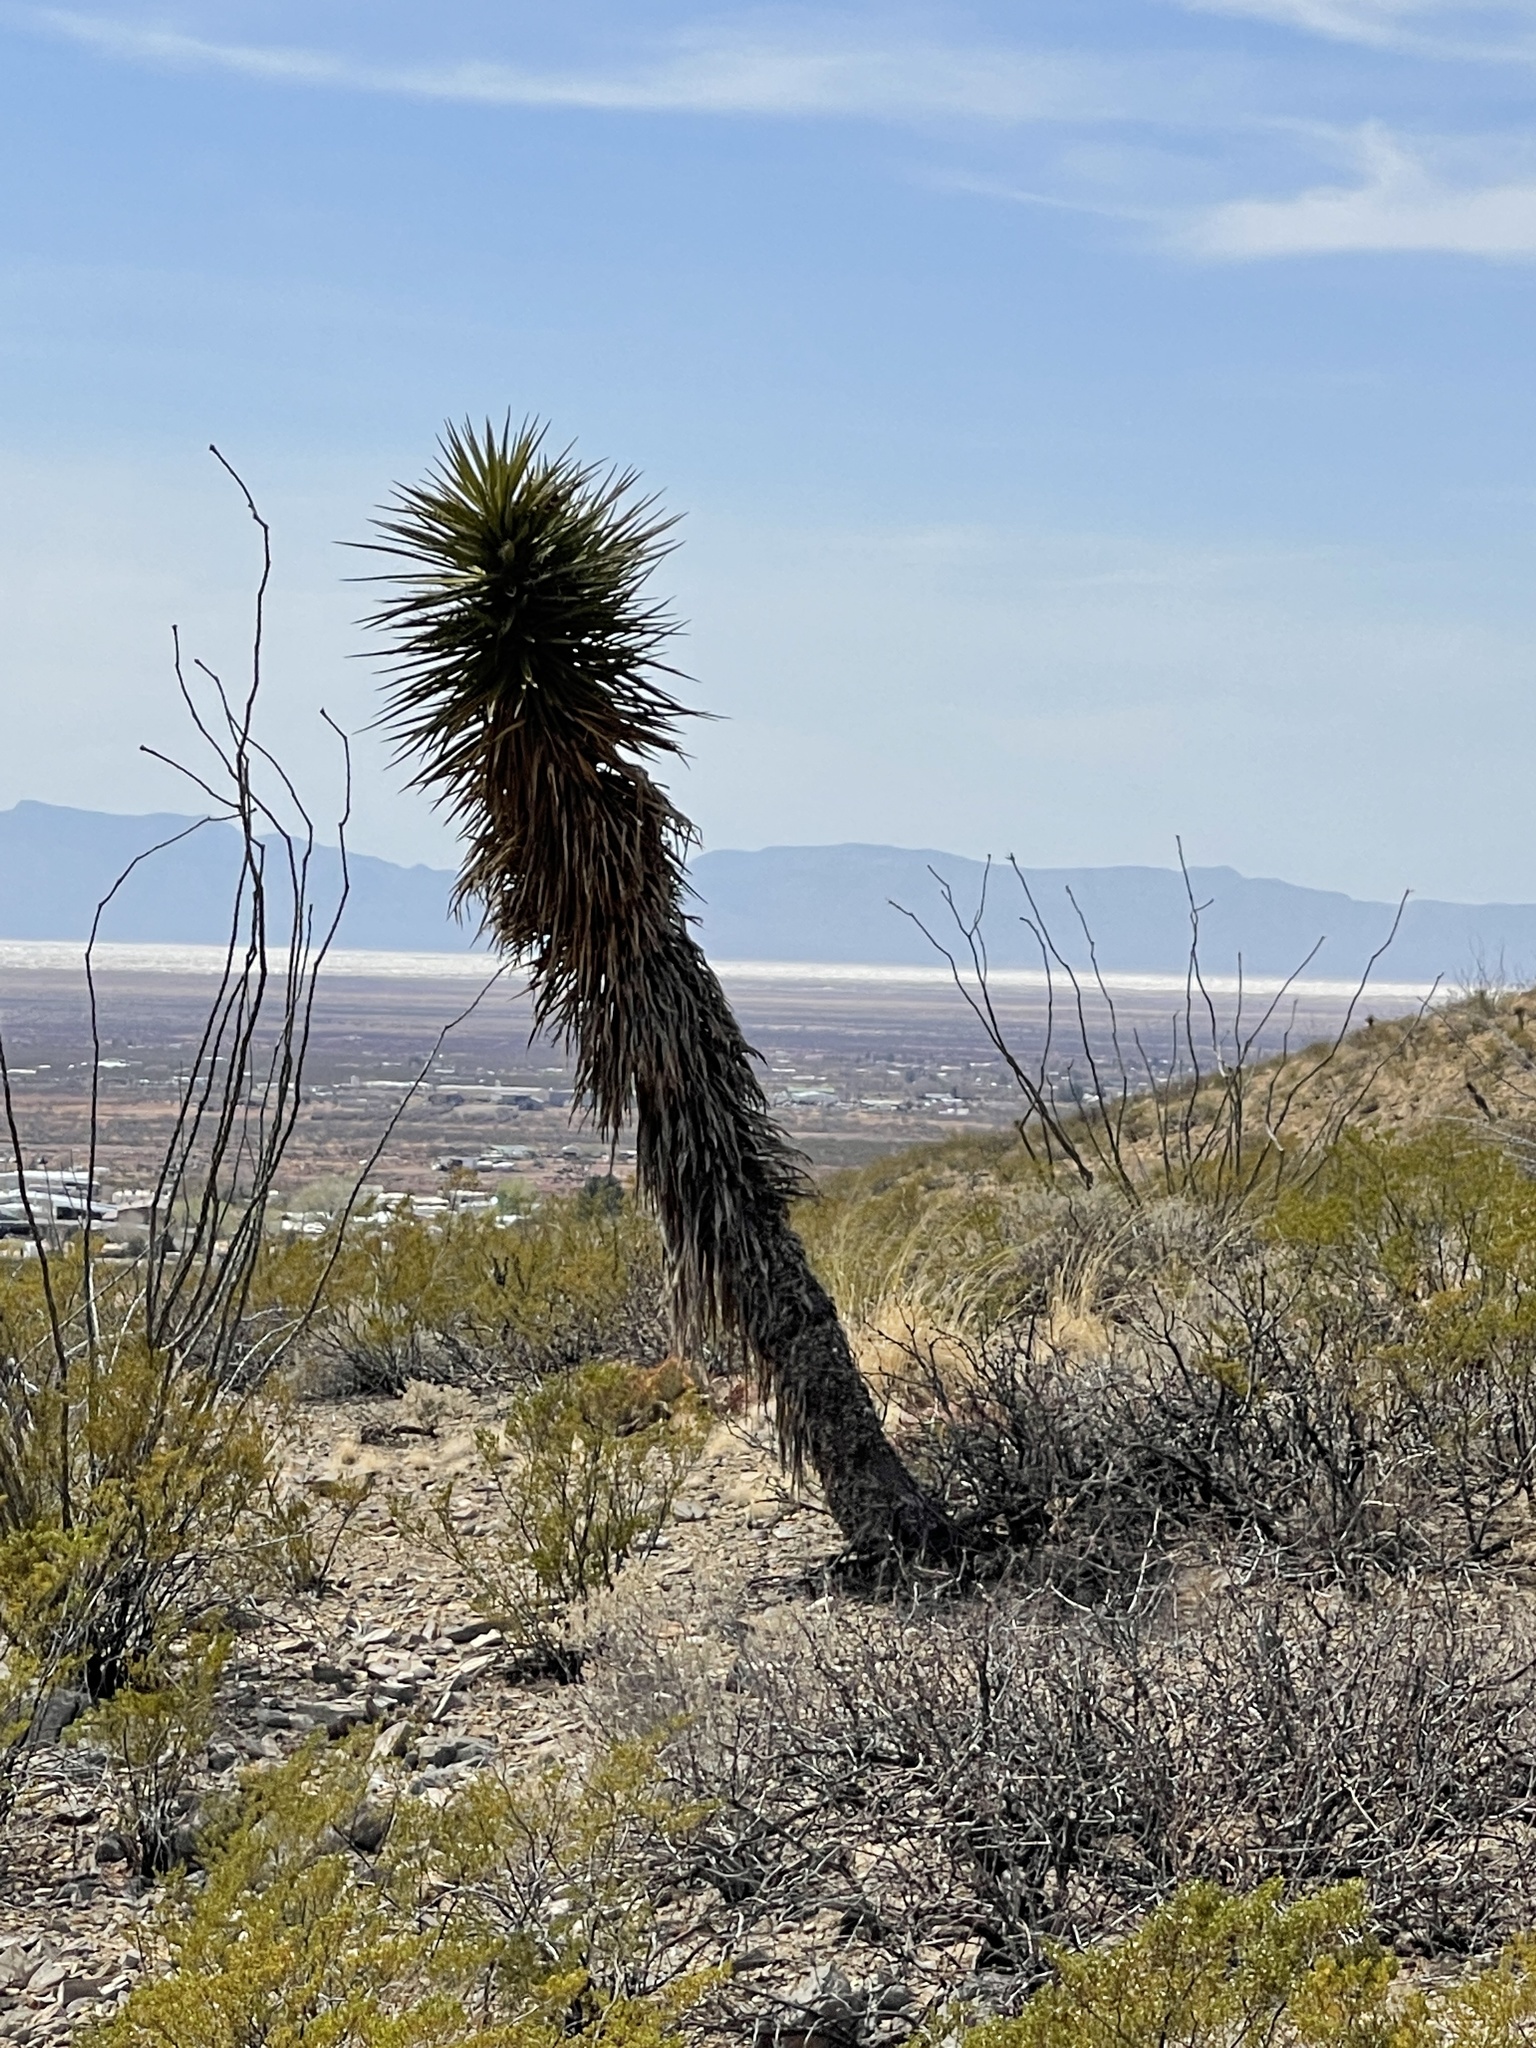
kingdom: Plantae
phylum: Tracheophyta
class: Liliopsida
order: Asparagales
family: Asparagaceae
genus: Yucca
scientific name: Yucca treculiana
